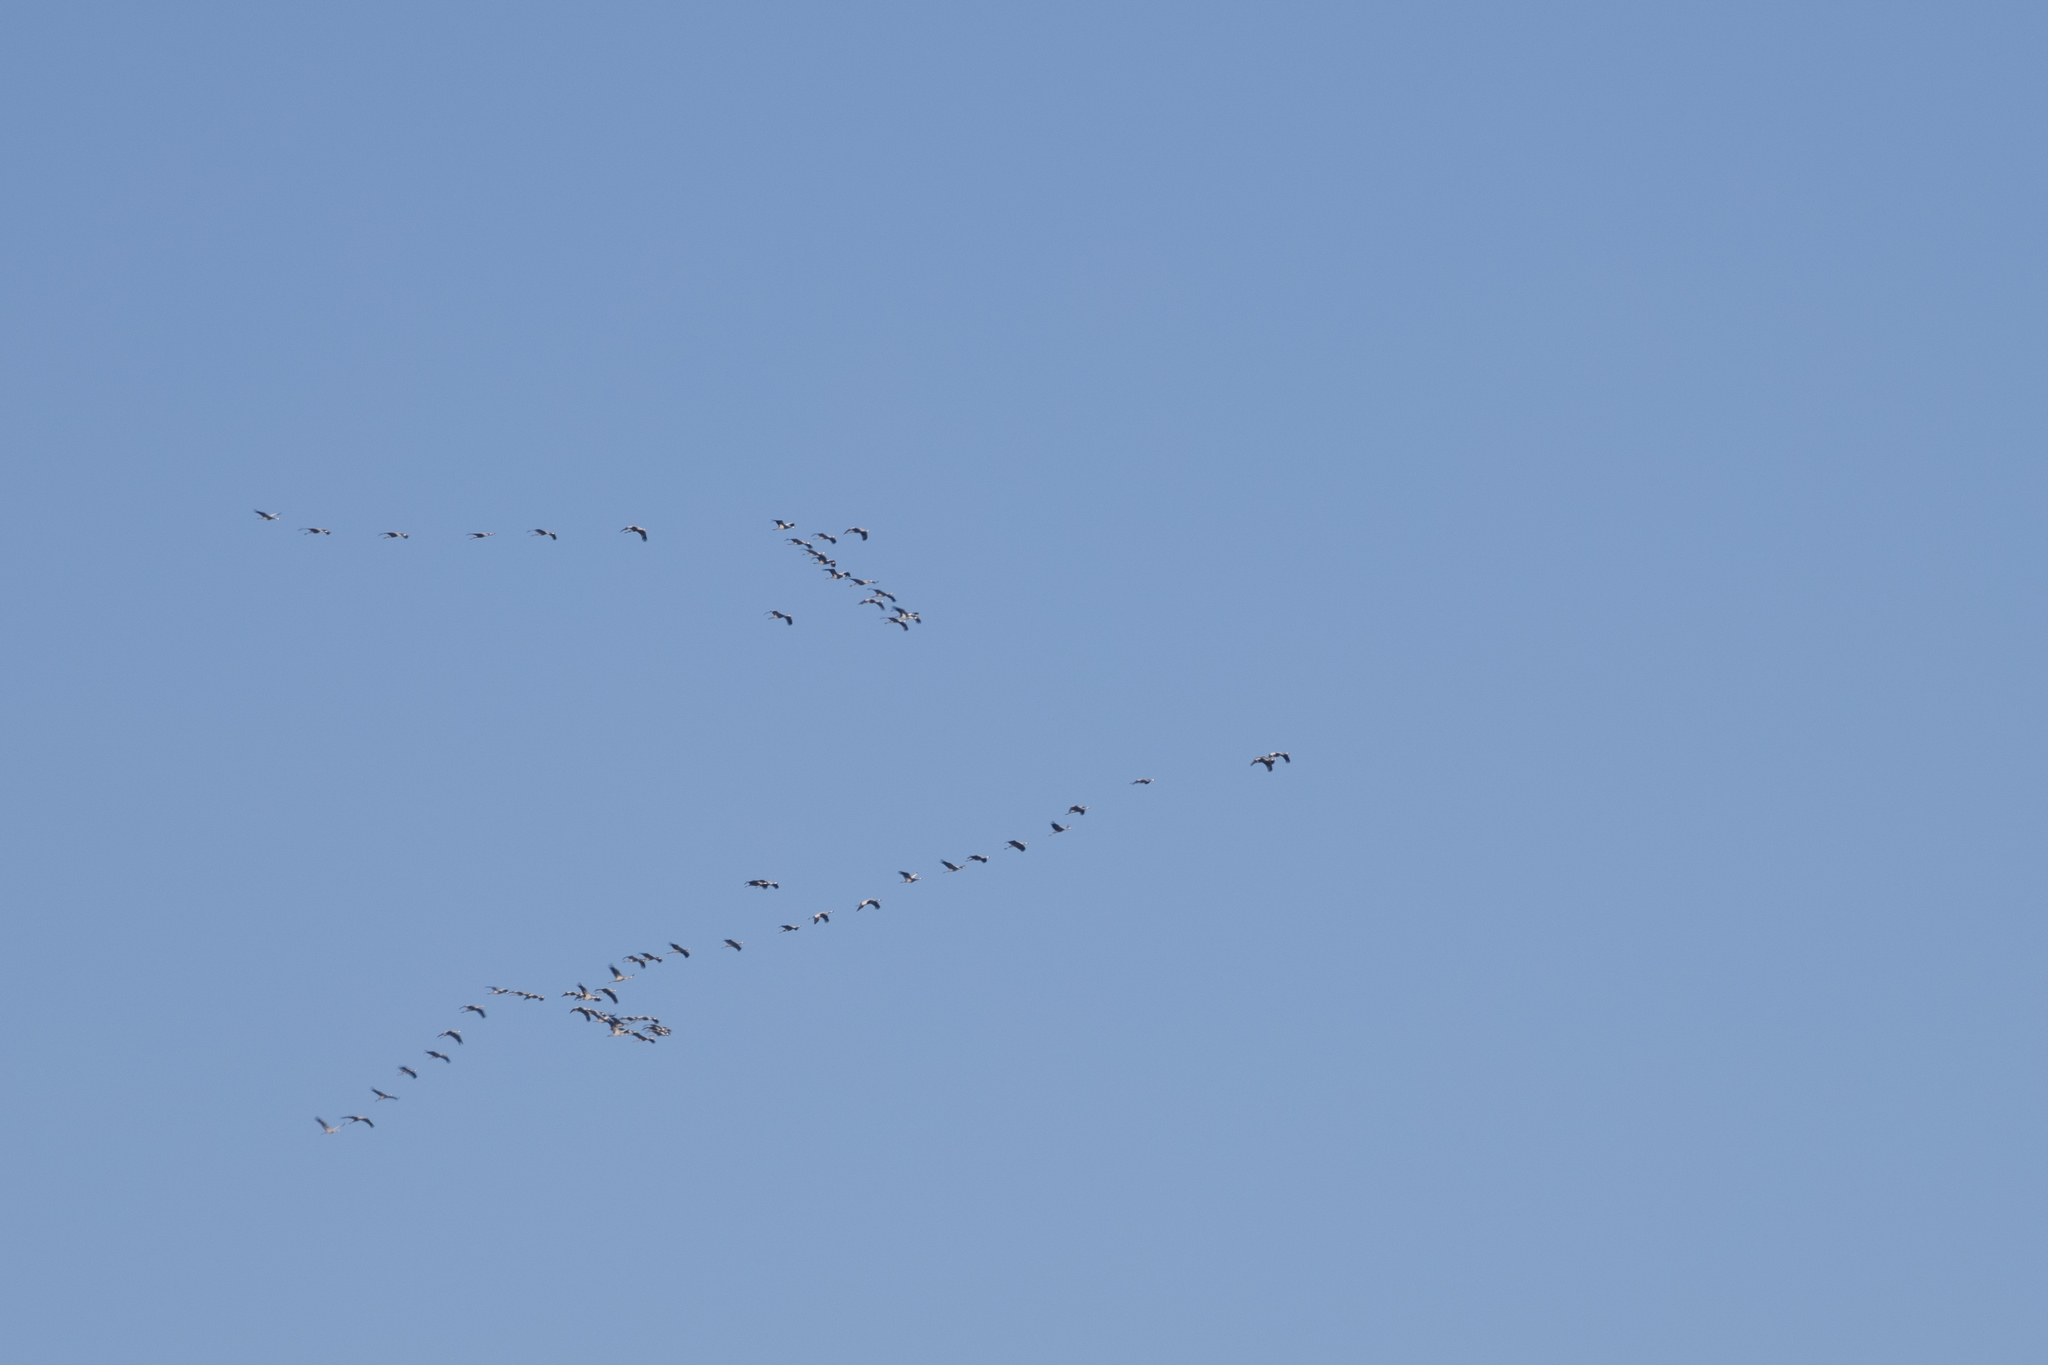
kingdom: Animalia
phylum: Chordata
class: Aves
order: Gruiformes
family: Gruidae
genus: Grus
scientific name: Grus grus
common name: Common crane
